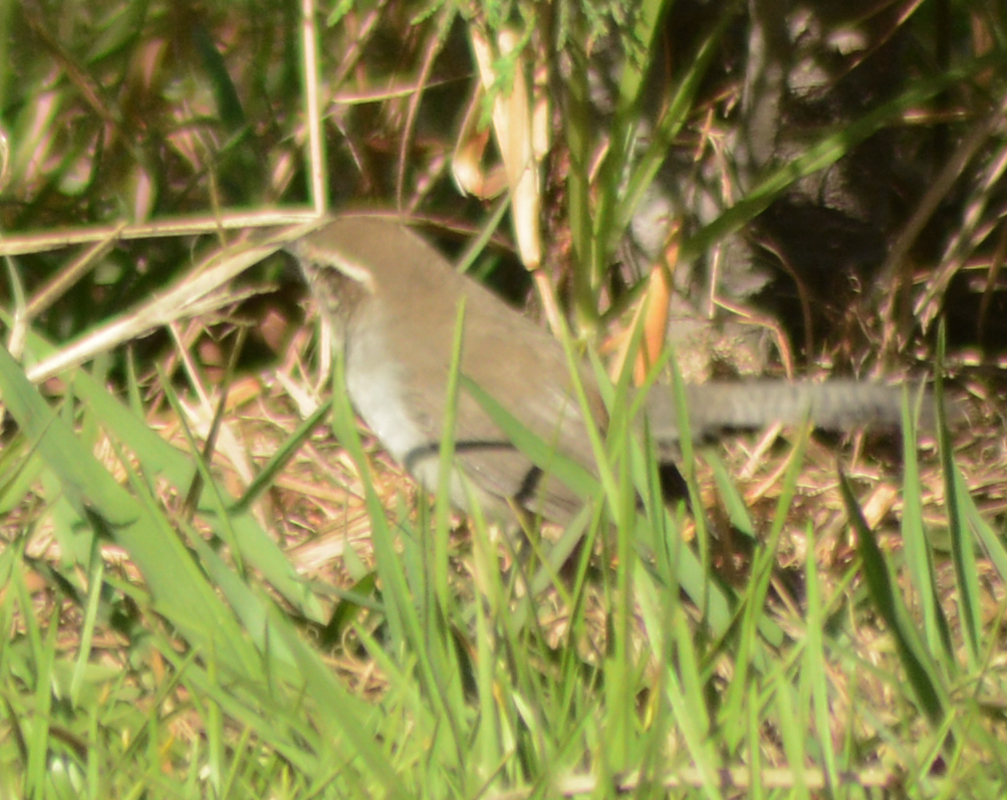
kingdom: Animalia
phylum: Chordata
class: Aves
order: Passeriformes
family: Troglodytidae
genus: Thryomanes
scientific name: Thryomanes bewickii
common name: Bewick's wren
